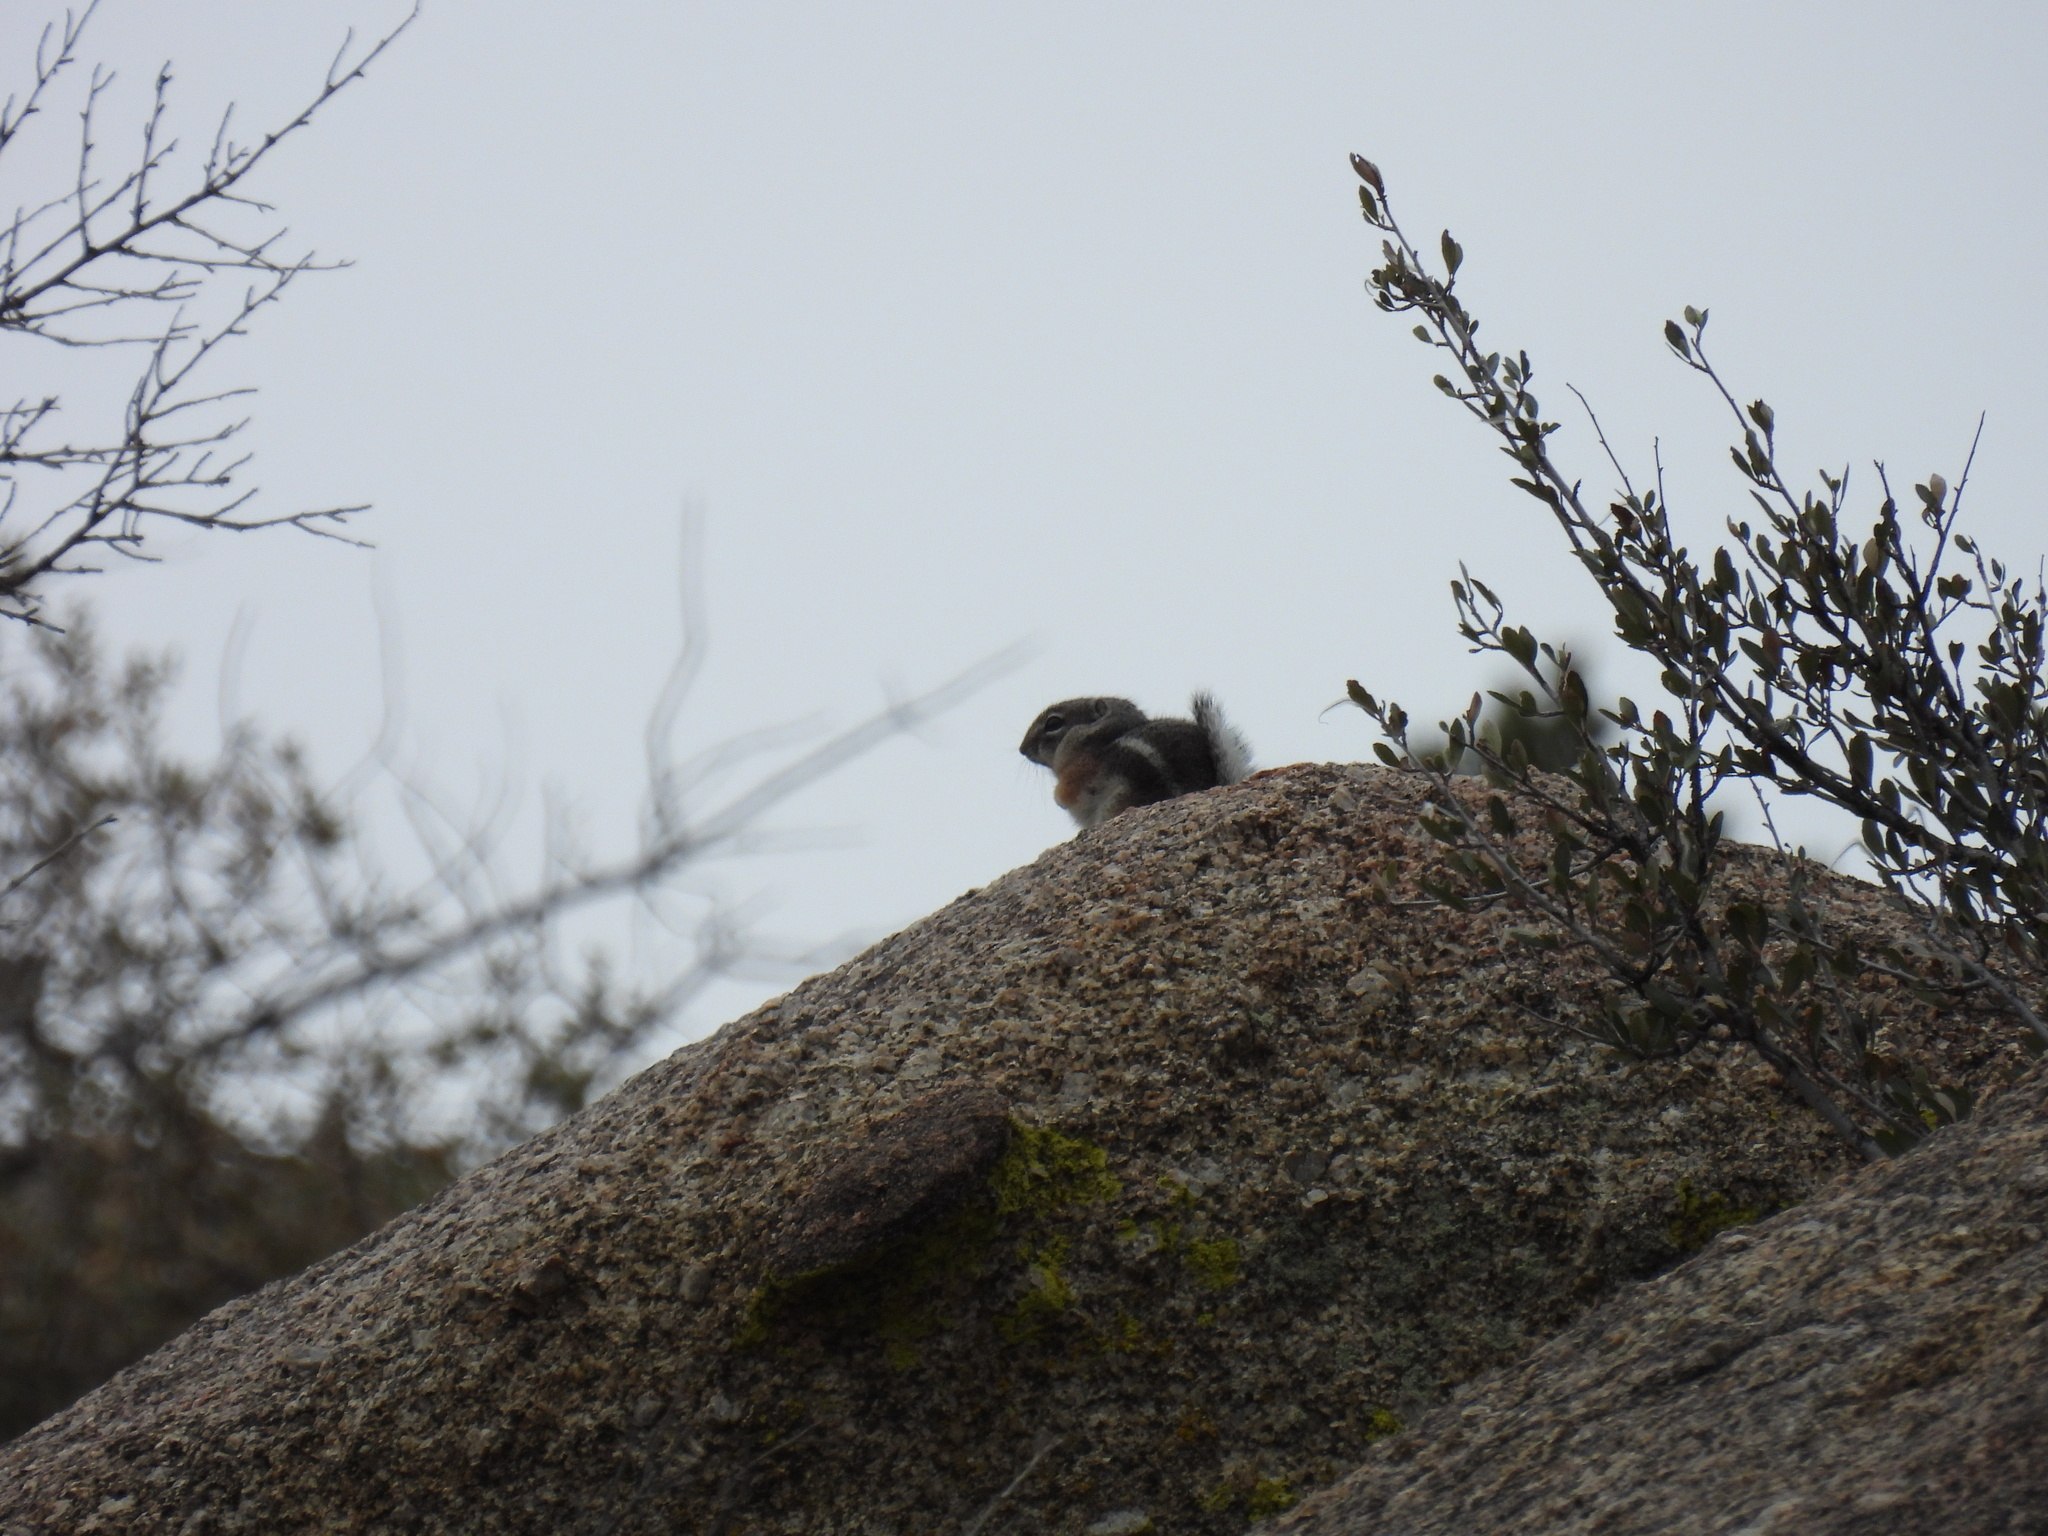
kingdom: Animalia
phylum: Chordata
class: Mammalia
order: Rodentia
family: Sciuridae
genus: Ammospermophilus
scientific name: Ammospermophilus leucurus
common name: White-tailed antelope squirrel
